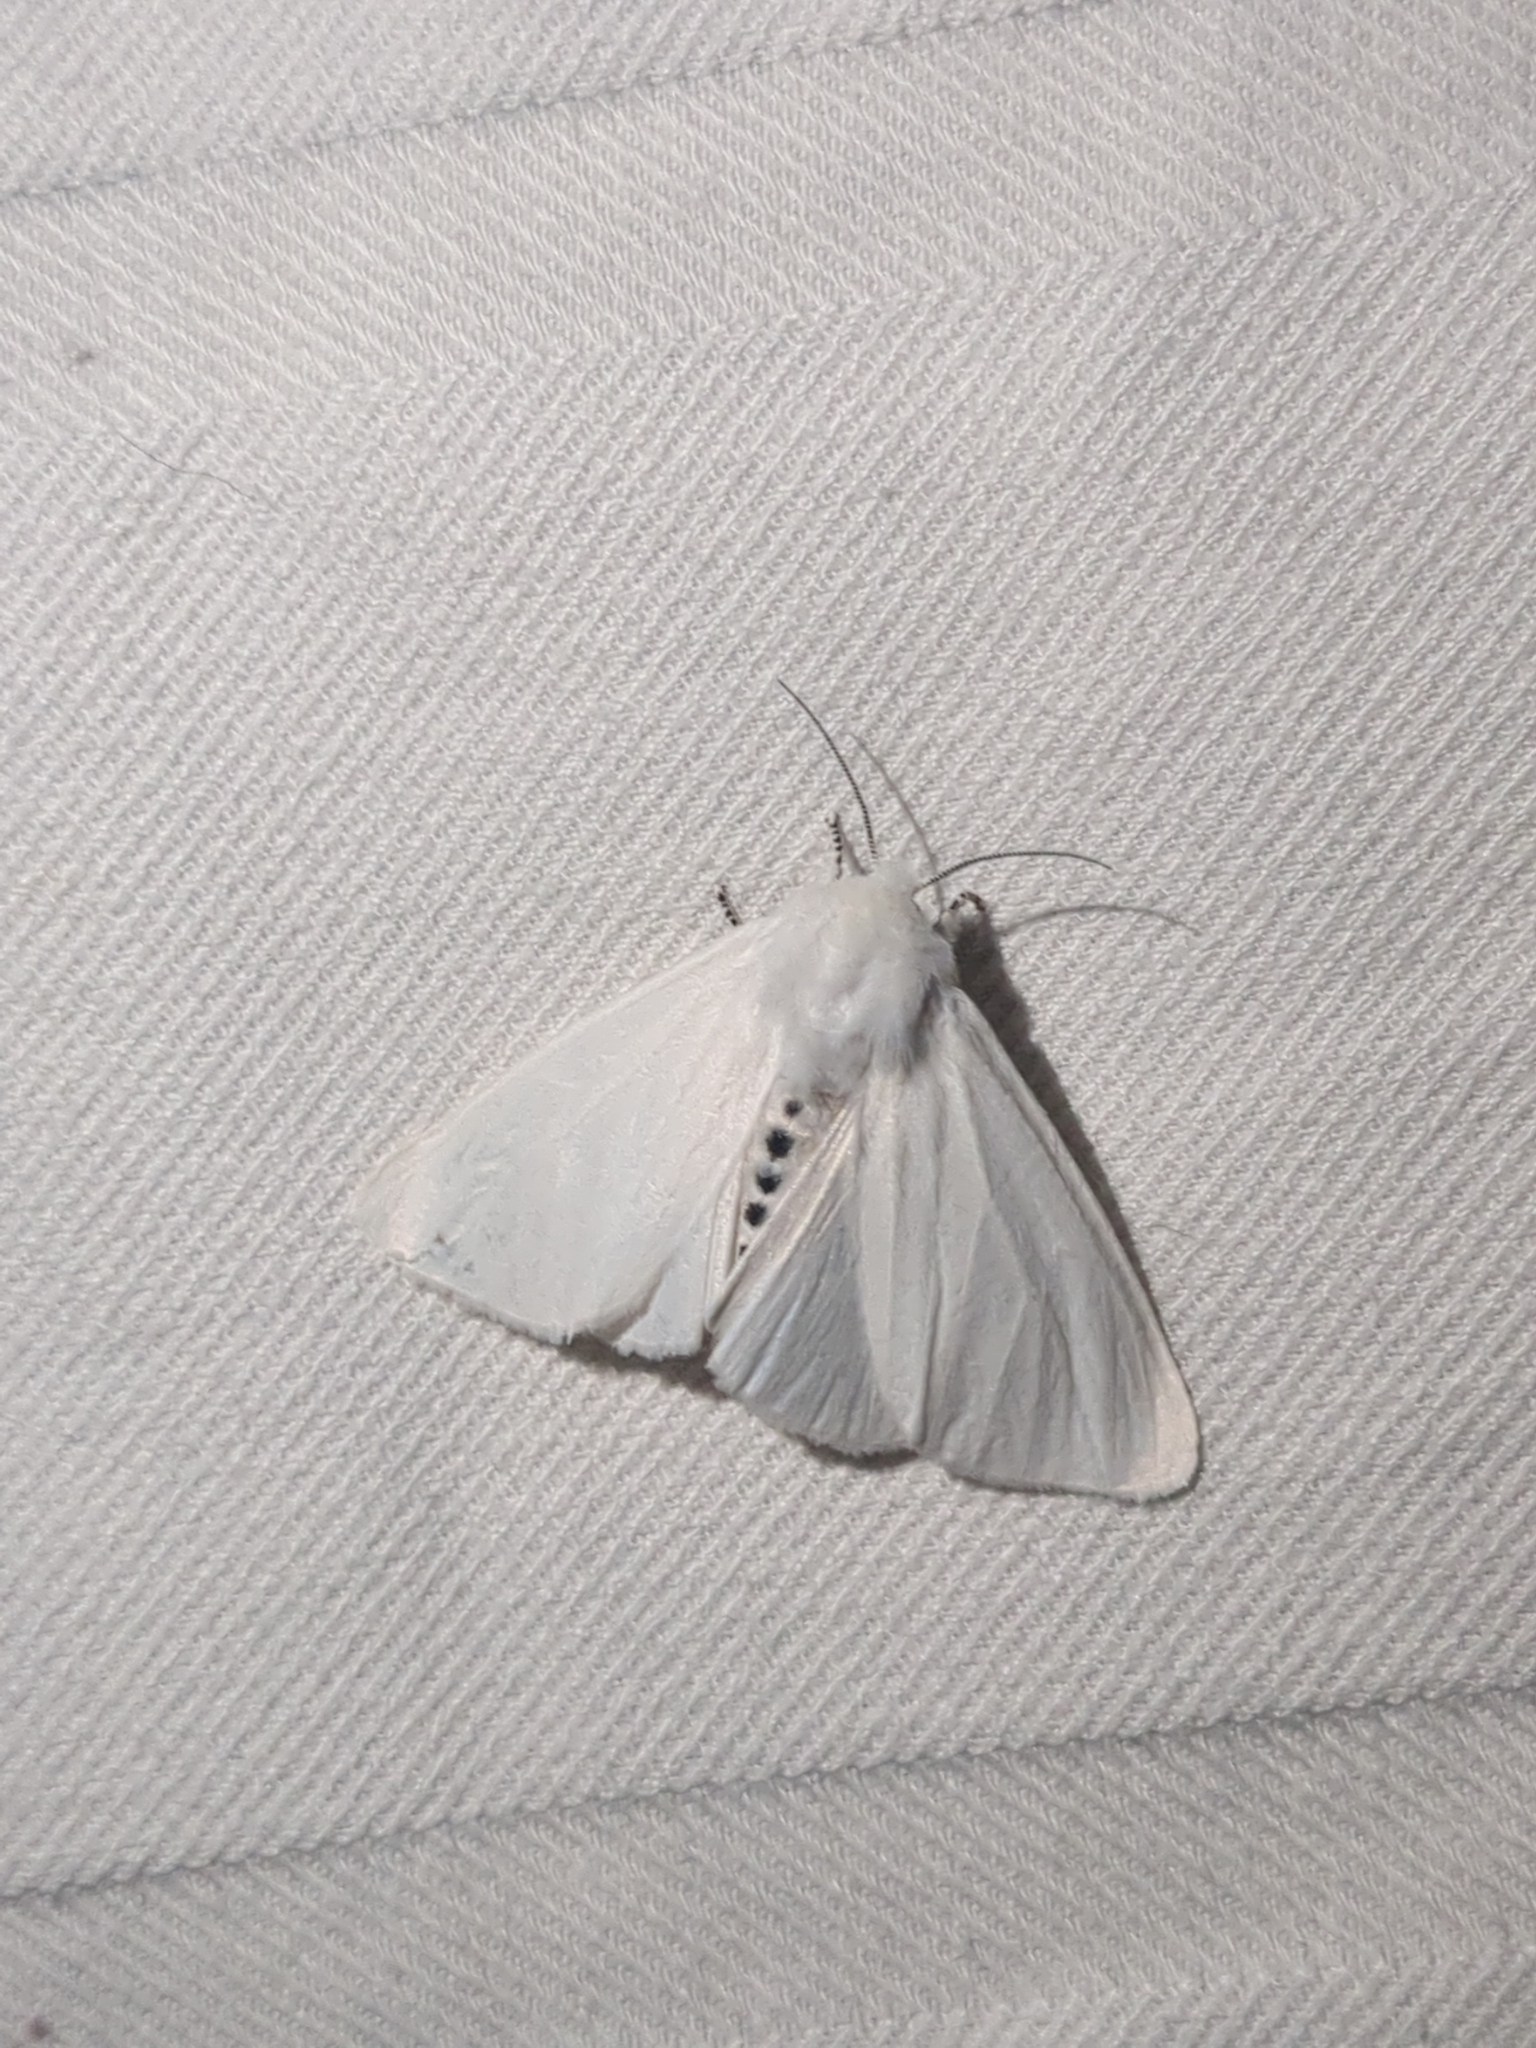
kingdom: Animalia
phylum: Arthropoda
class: Insecta
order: Lepidoptera
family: Erebidae
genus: Spilosoma
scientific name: Spilosoma virginica
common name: Virginia tiger moth
